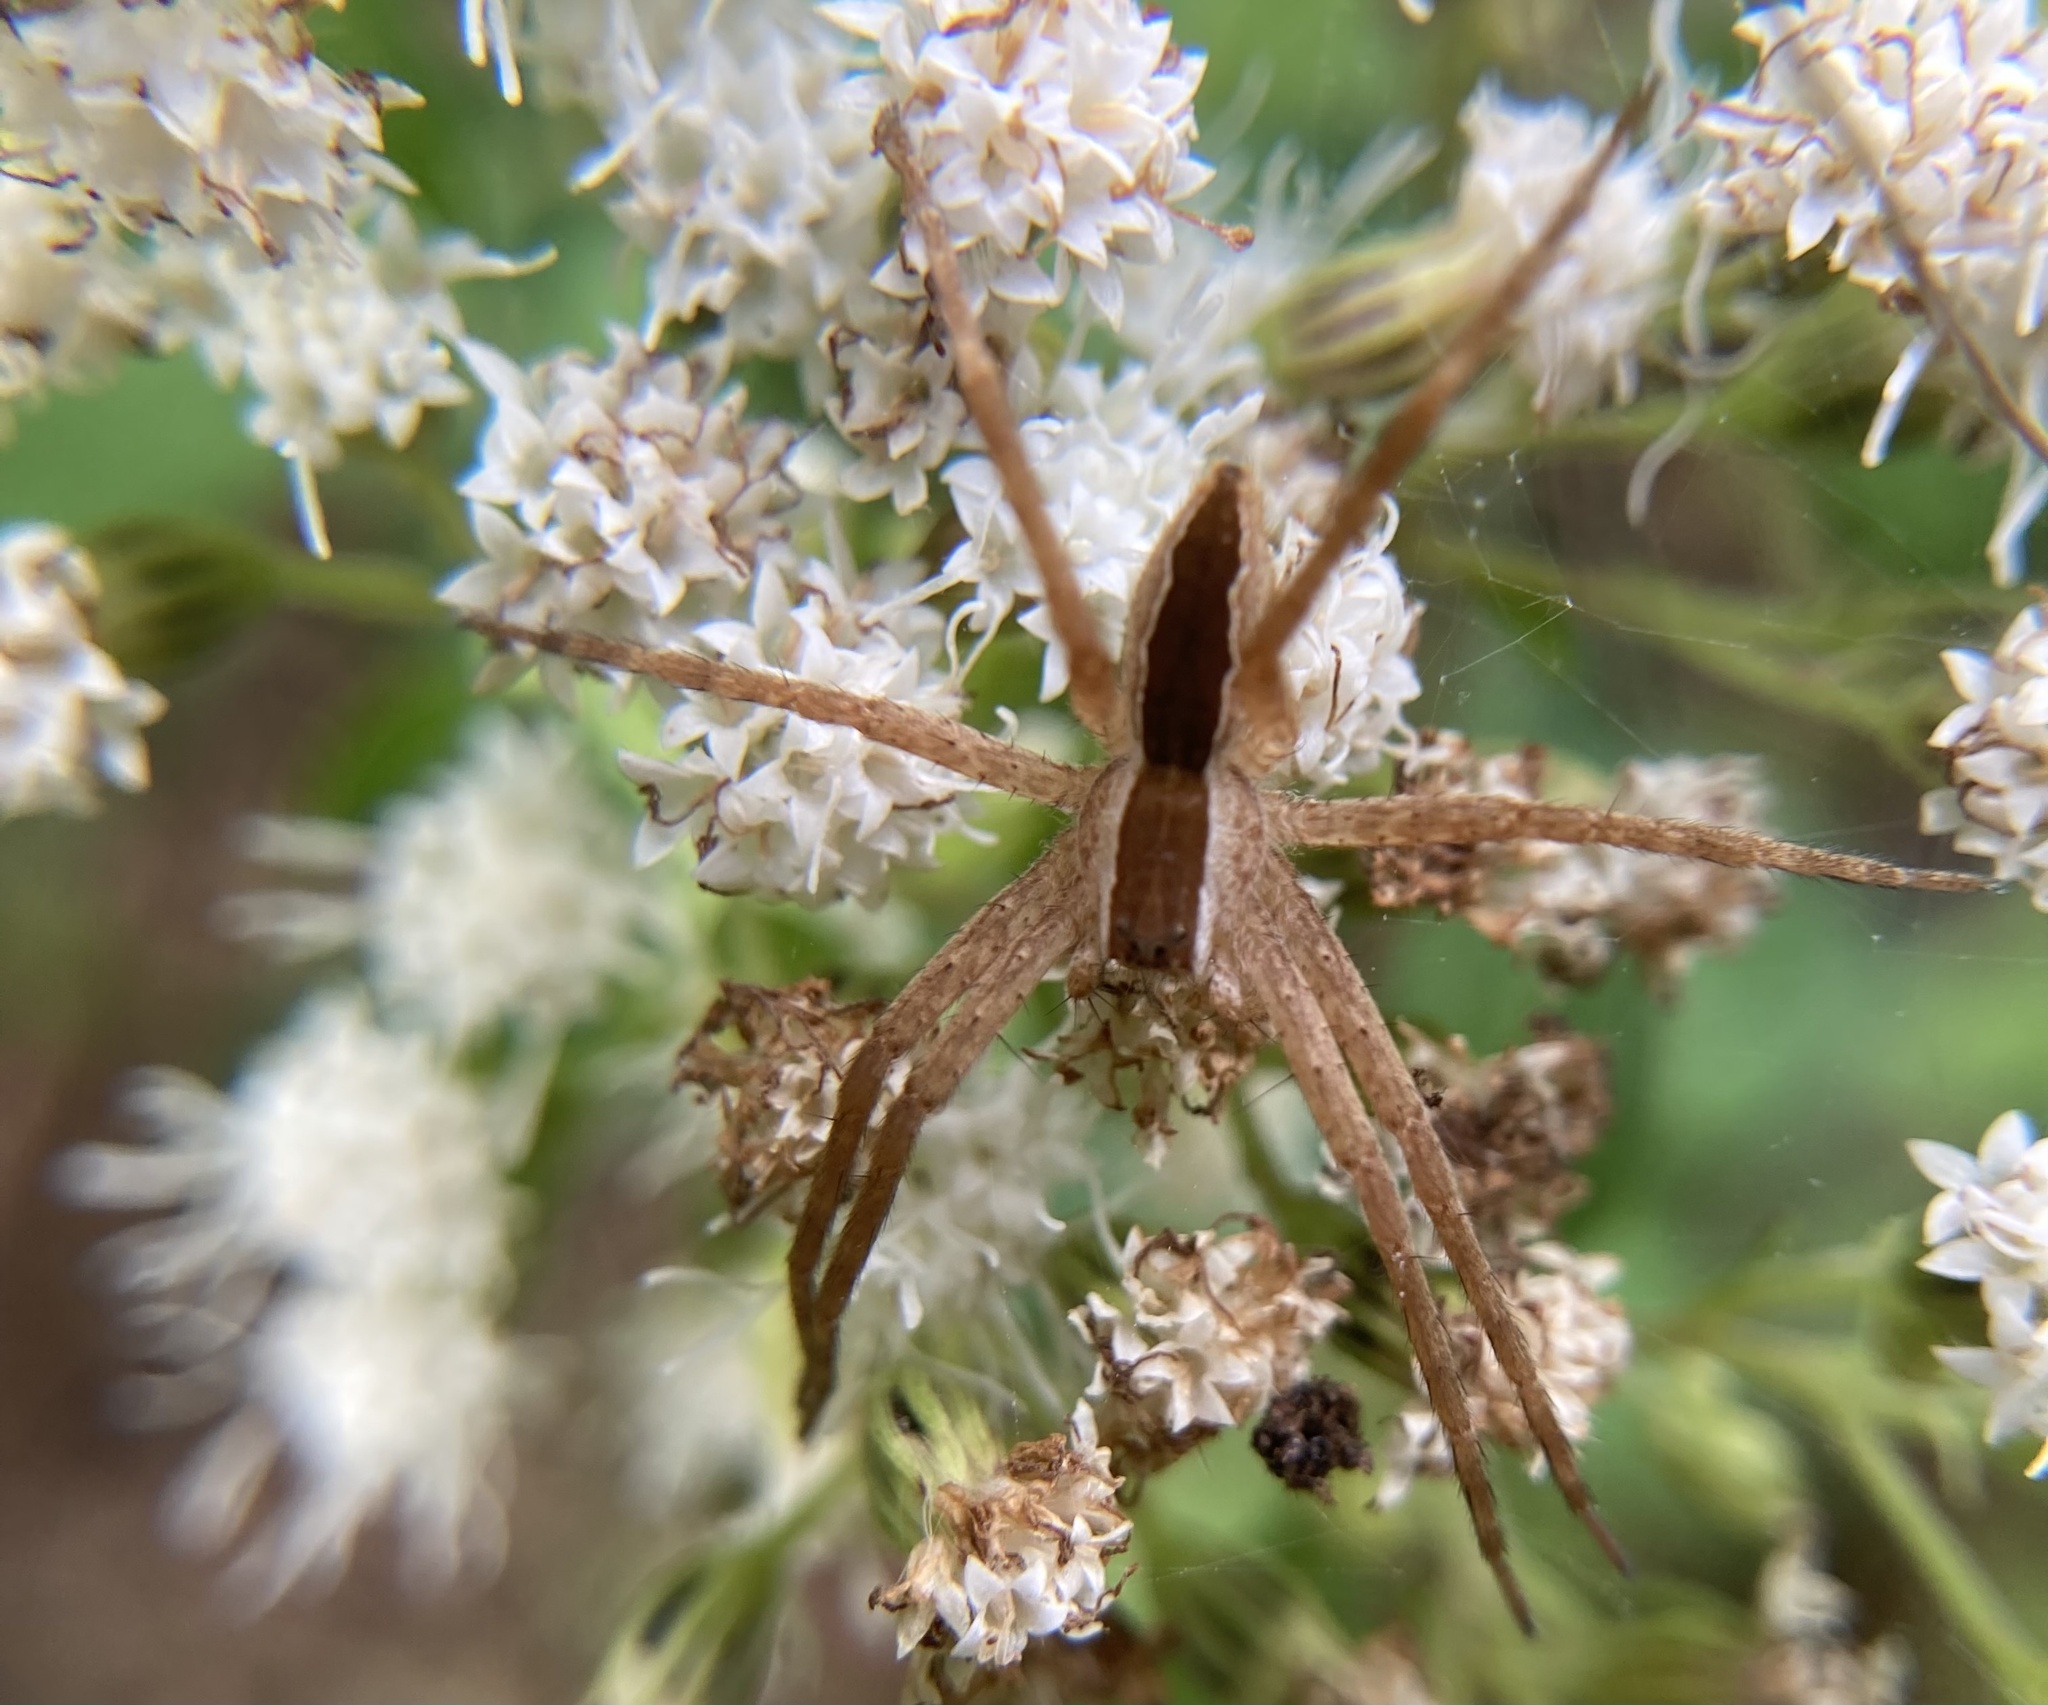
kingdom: Animalia
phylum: Arthropoda
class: Arachnida
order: Araneae
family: Pisauridae
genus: Pisaurina
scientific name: Pisaurina mira
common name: American nursery web spider
